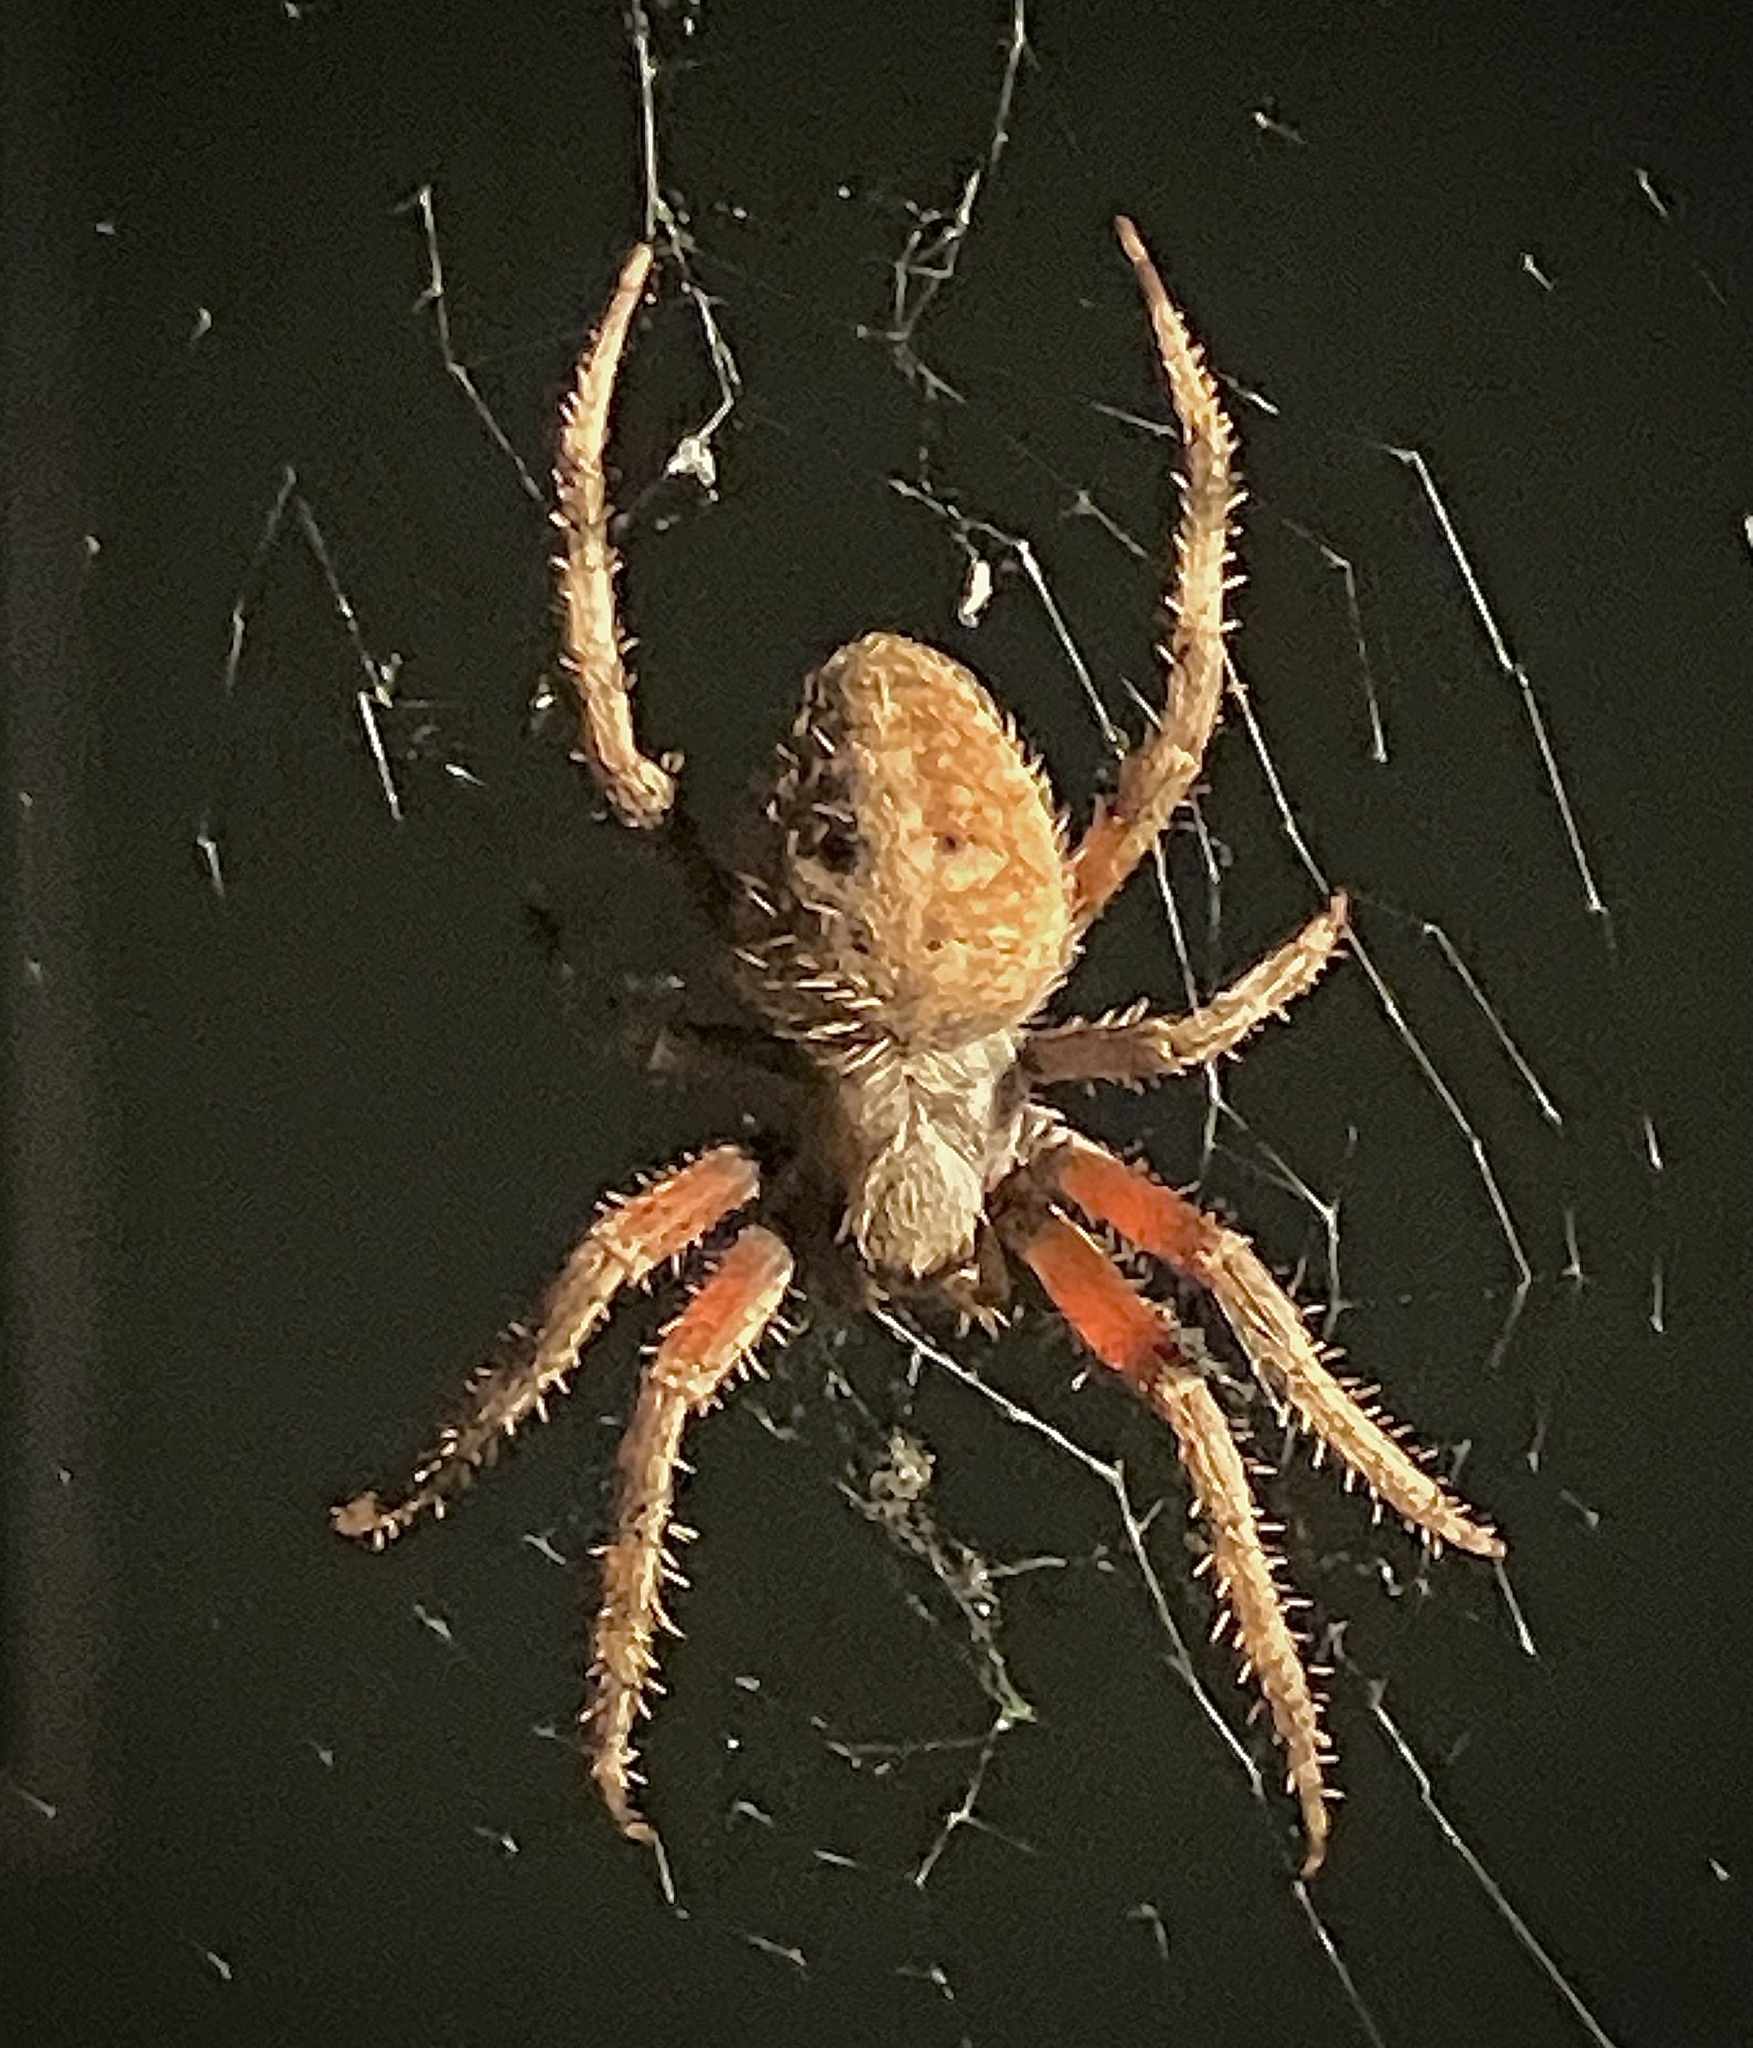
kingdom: Animalia
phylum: Arthropoda
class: Arachnida
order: Araneae
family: Araneidae
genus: Neoscona
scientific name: Neoscona crucifera
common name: Spotted orbweaver
